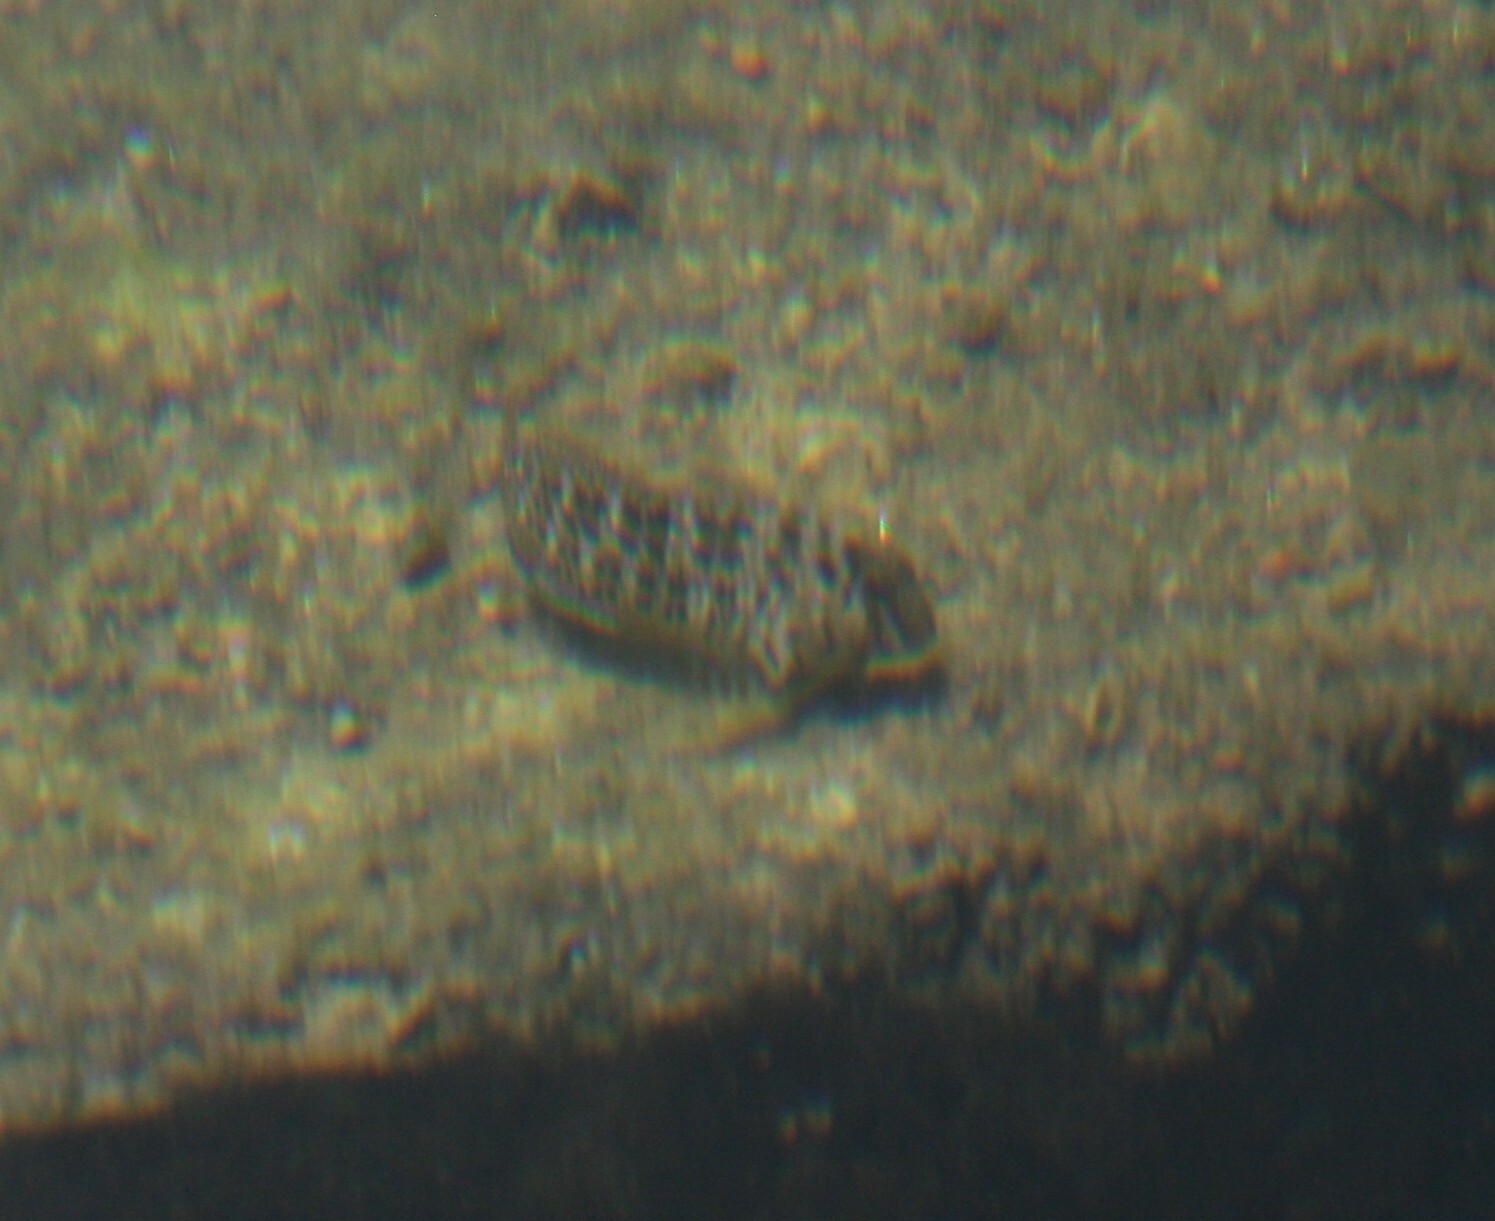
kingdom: Animalia
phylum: Chordata
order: Perciformes
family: Blenniidae
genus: Parablennius
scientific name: Parablennius sanguinolentus
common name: Black sea blenny
